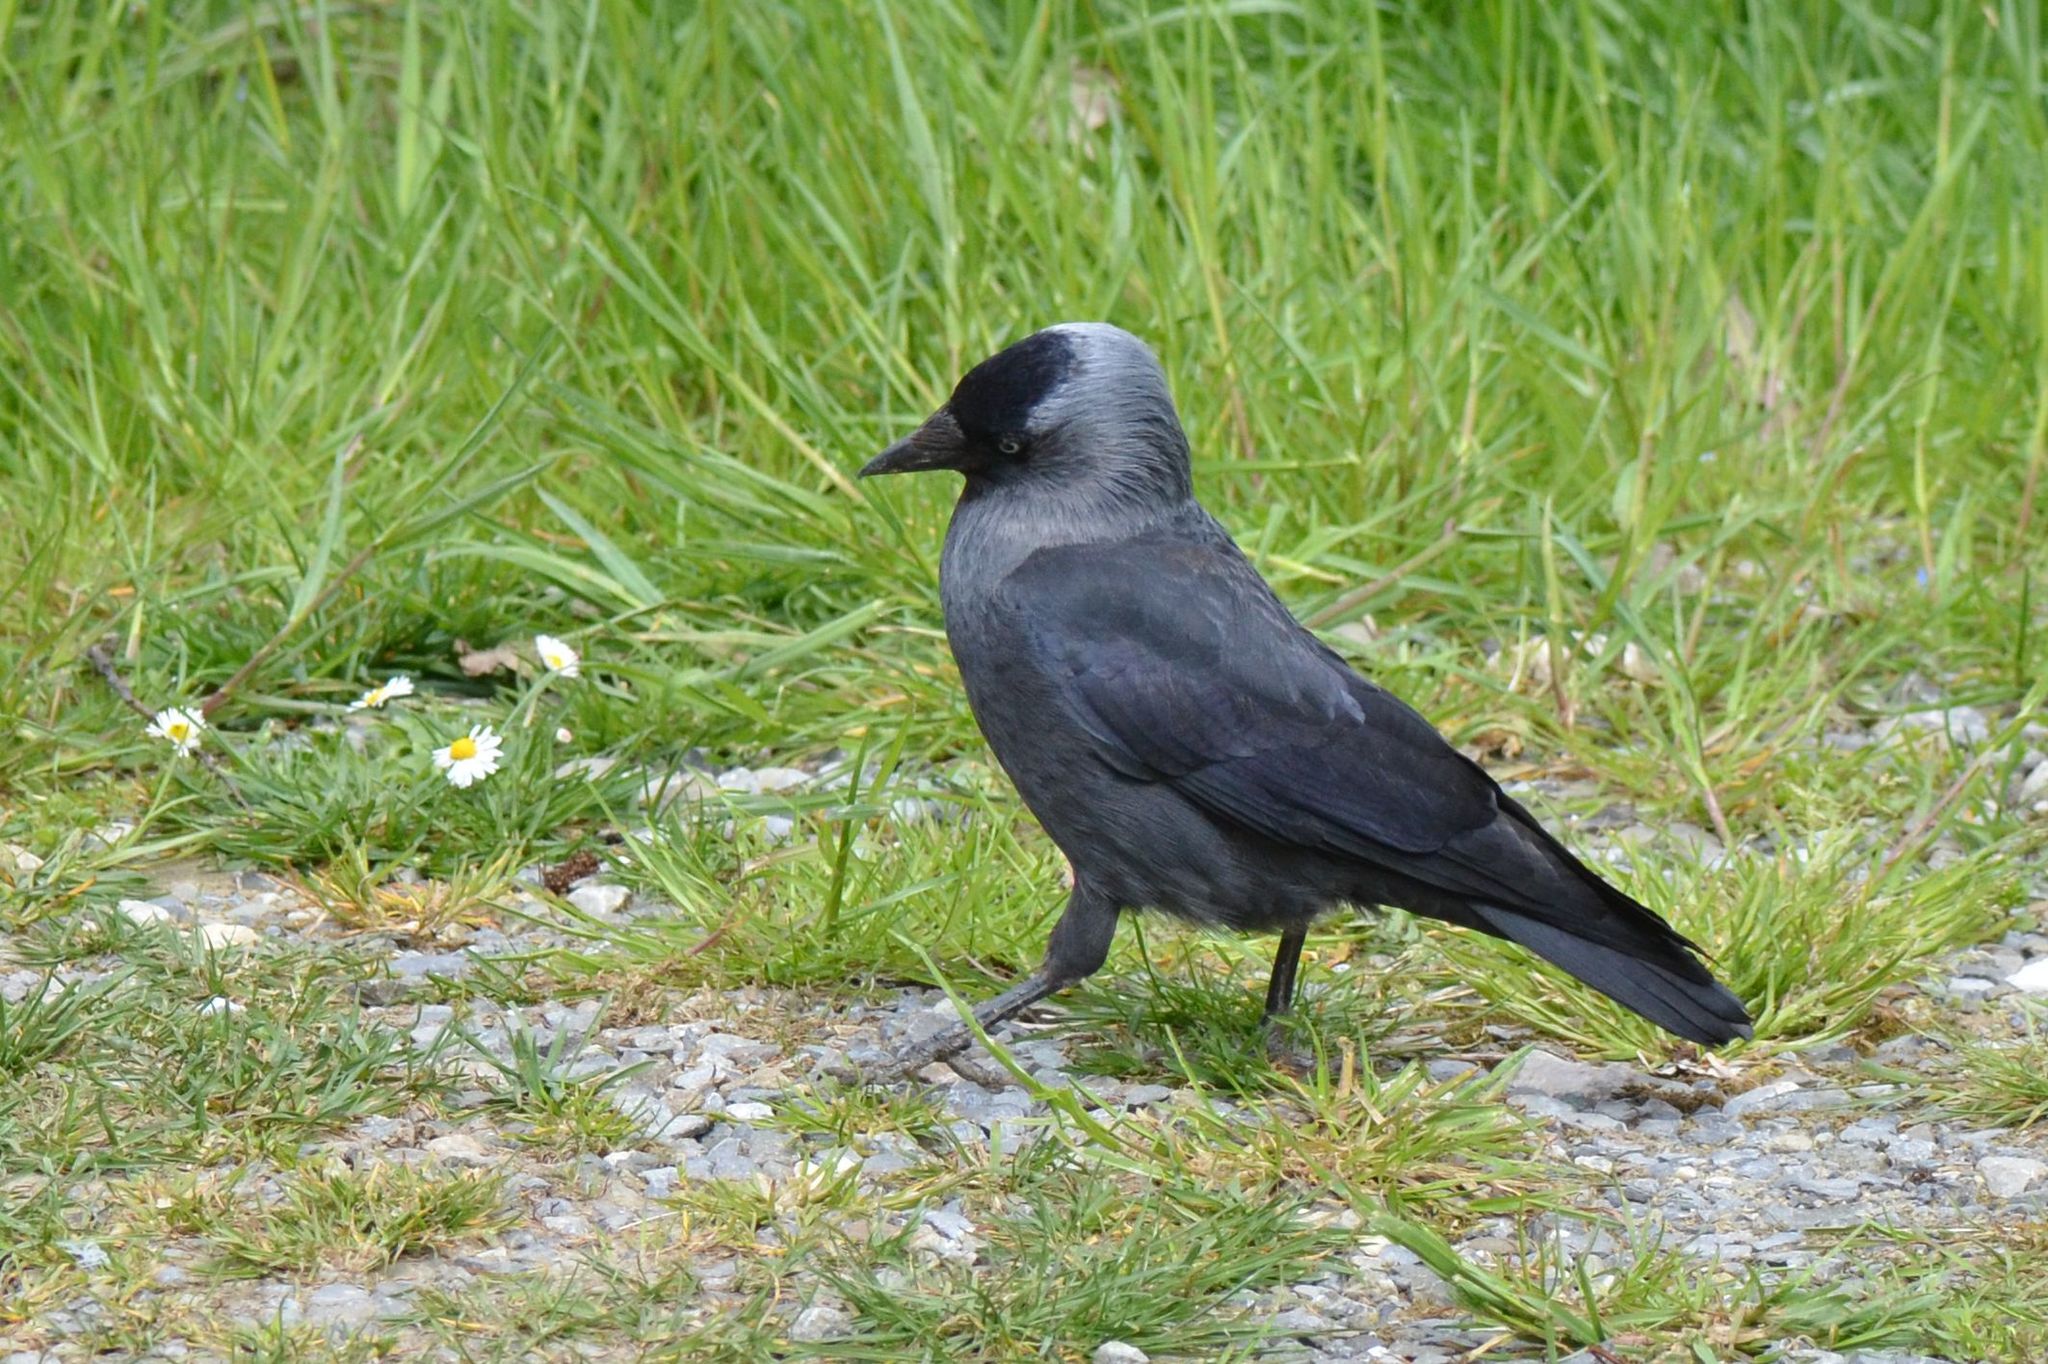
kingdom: Animalia
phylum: Chordata
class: Aves
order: Passeriformes
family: Corvidae
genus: Coloeus
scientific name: Coloeus monedula
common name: Western jackdaw
